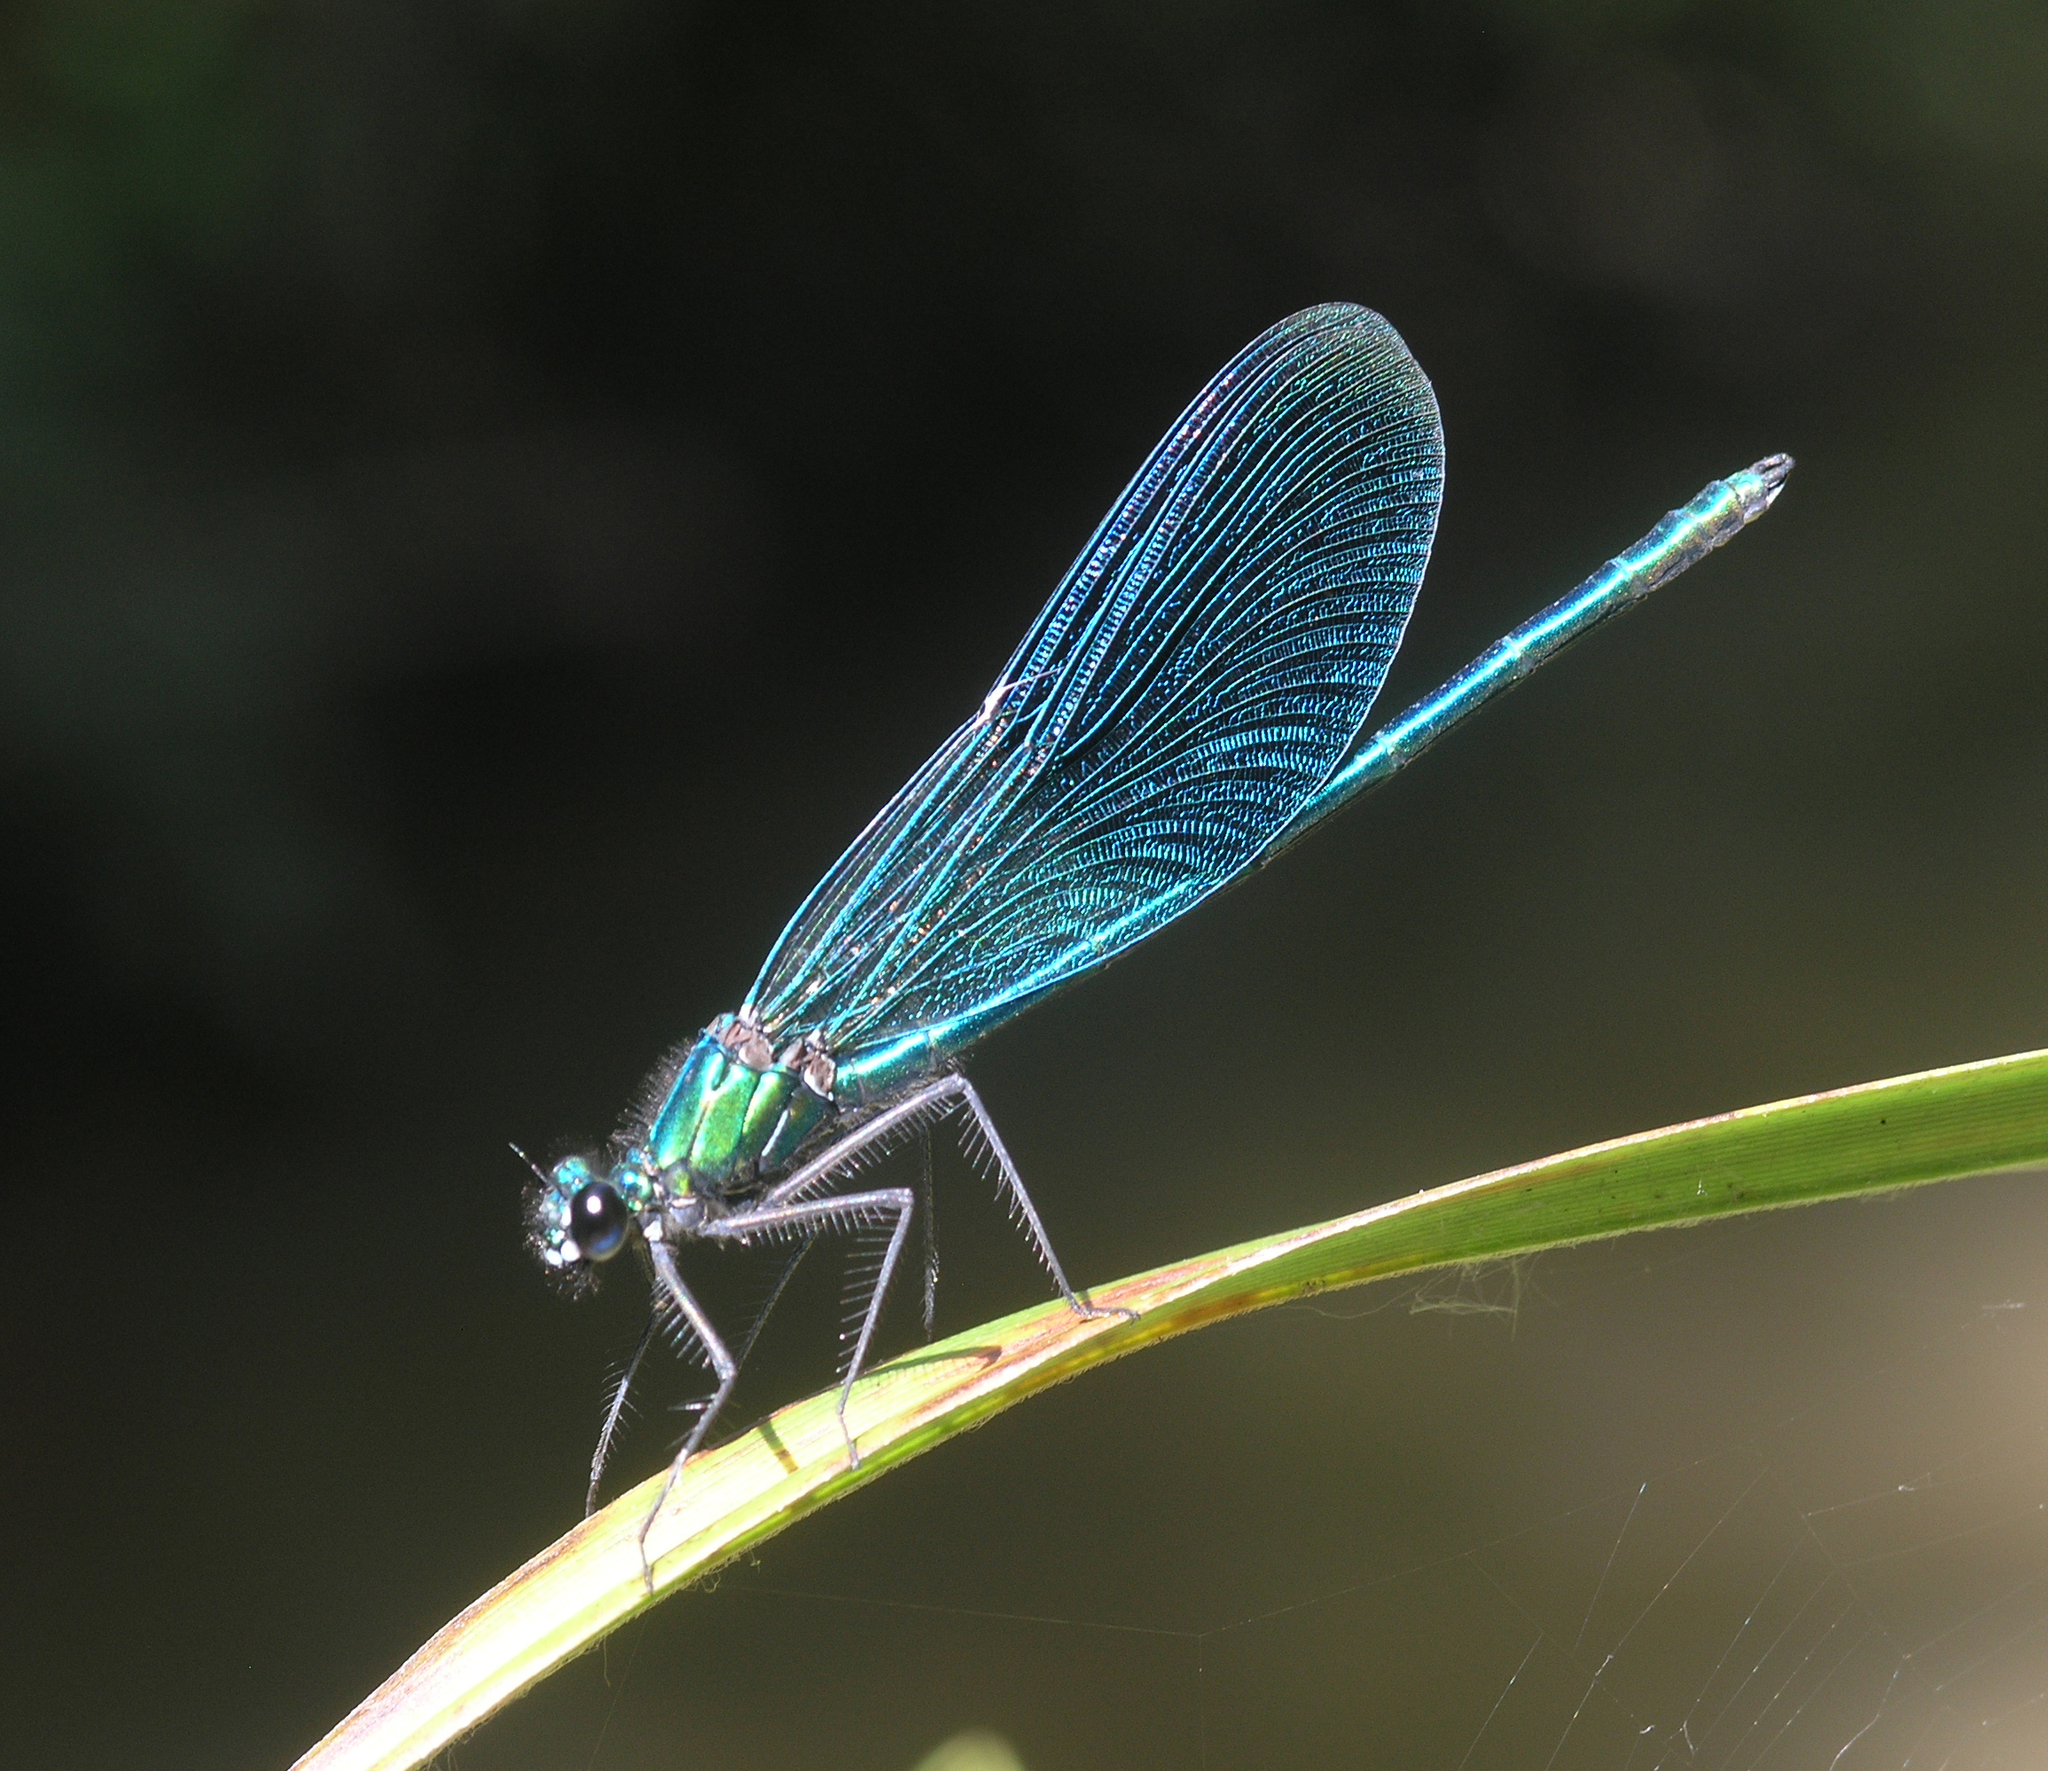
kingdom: Animalia
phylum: Arthropoda
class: Insecta
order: Odonata
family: Calopterygidae
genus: Calopteryx
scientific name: Calopteryx splendens
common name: Banded demoiselle
